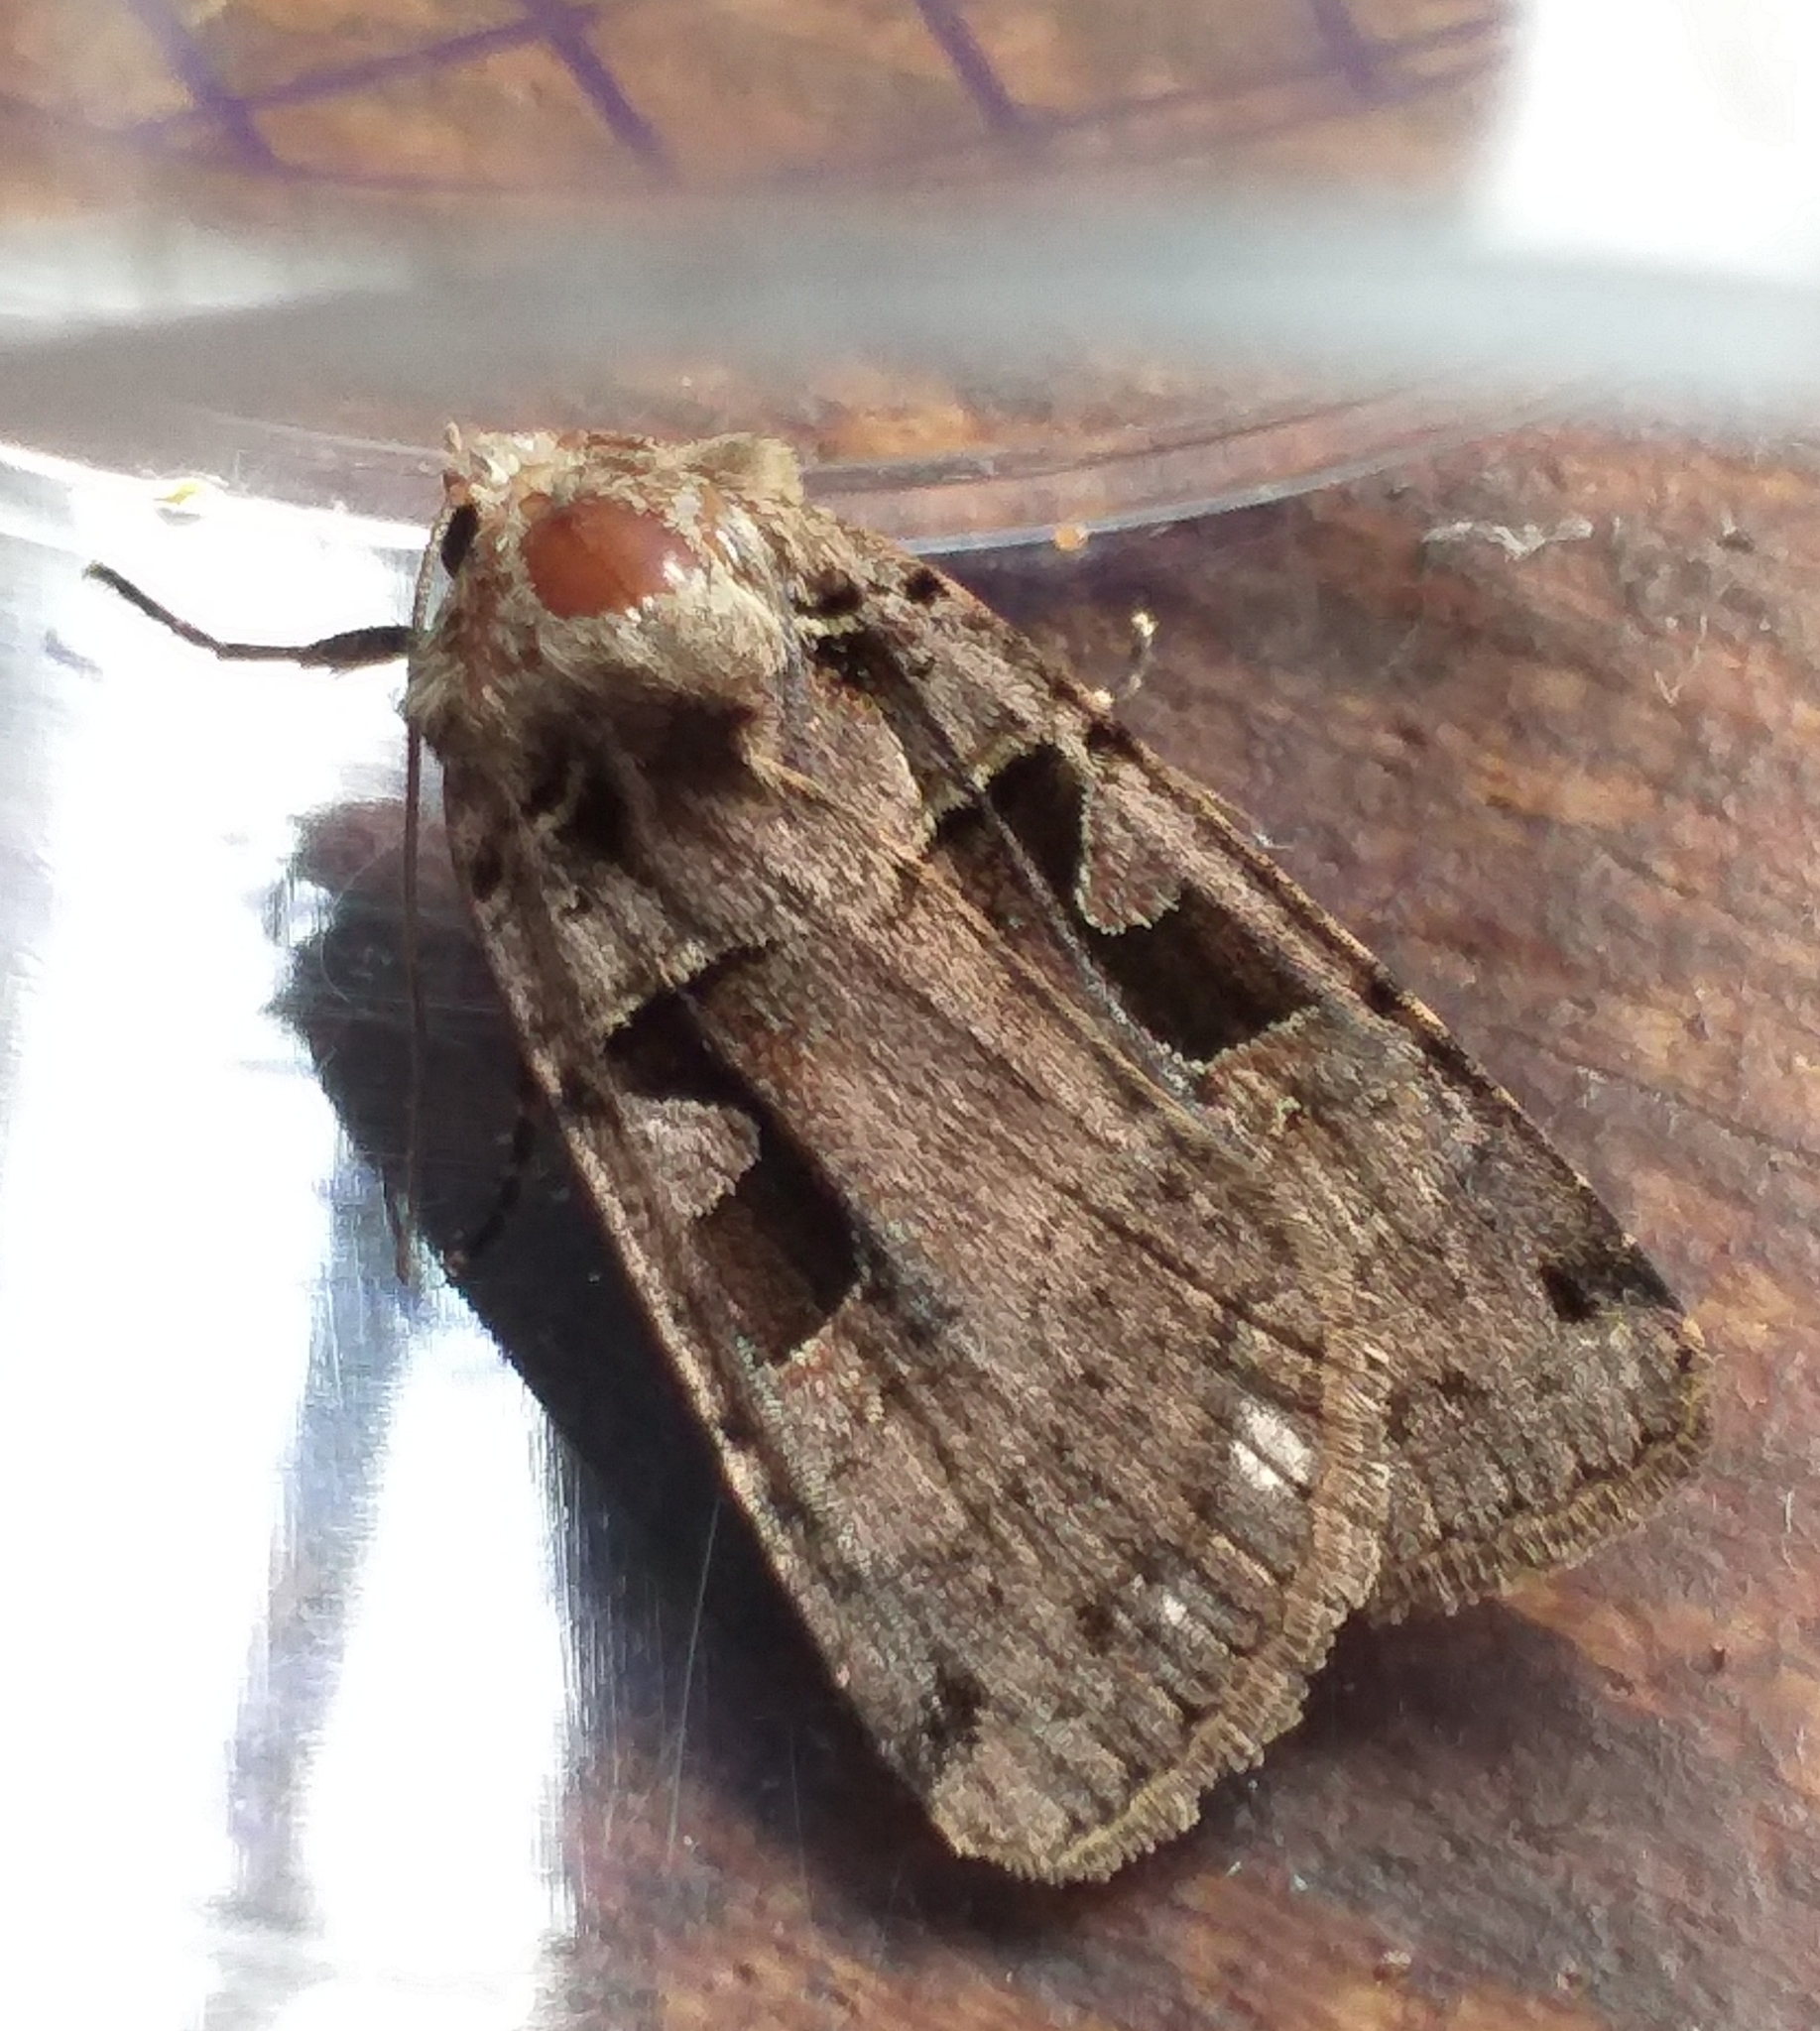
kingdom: Animalia
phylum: Arthropoda
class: Insecta
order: Lepidoptera
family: Noctuidae
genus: Xestia
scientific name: Xestia triangulum
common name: Double square-spot
